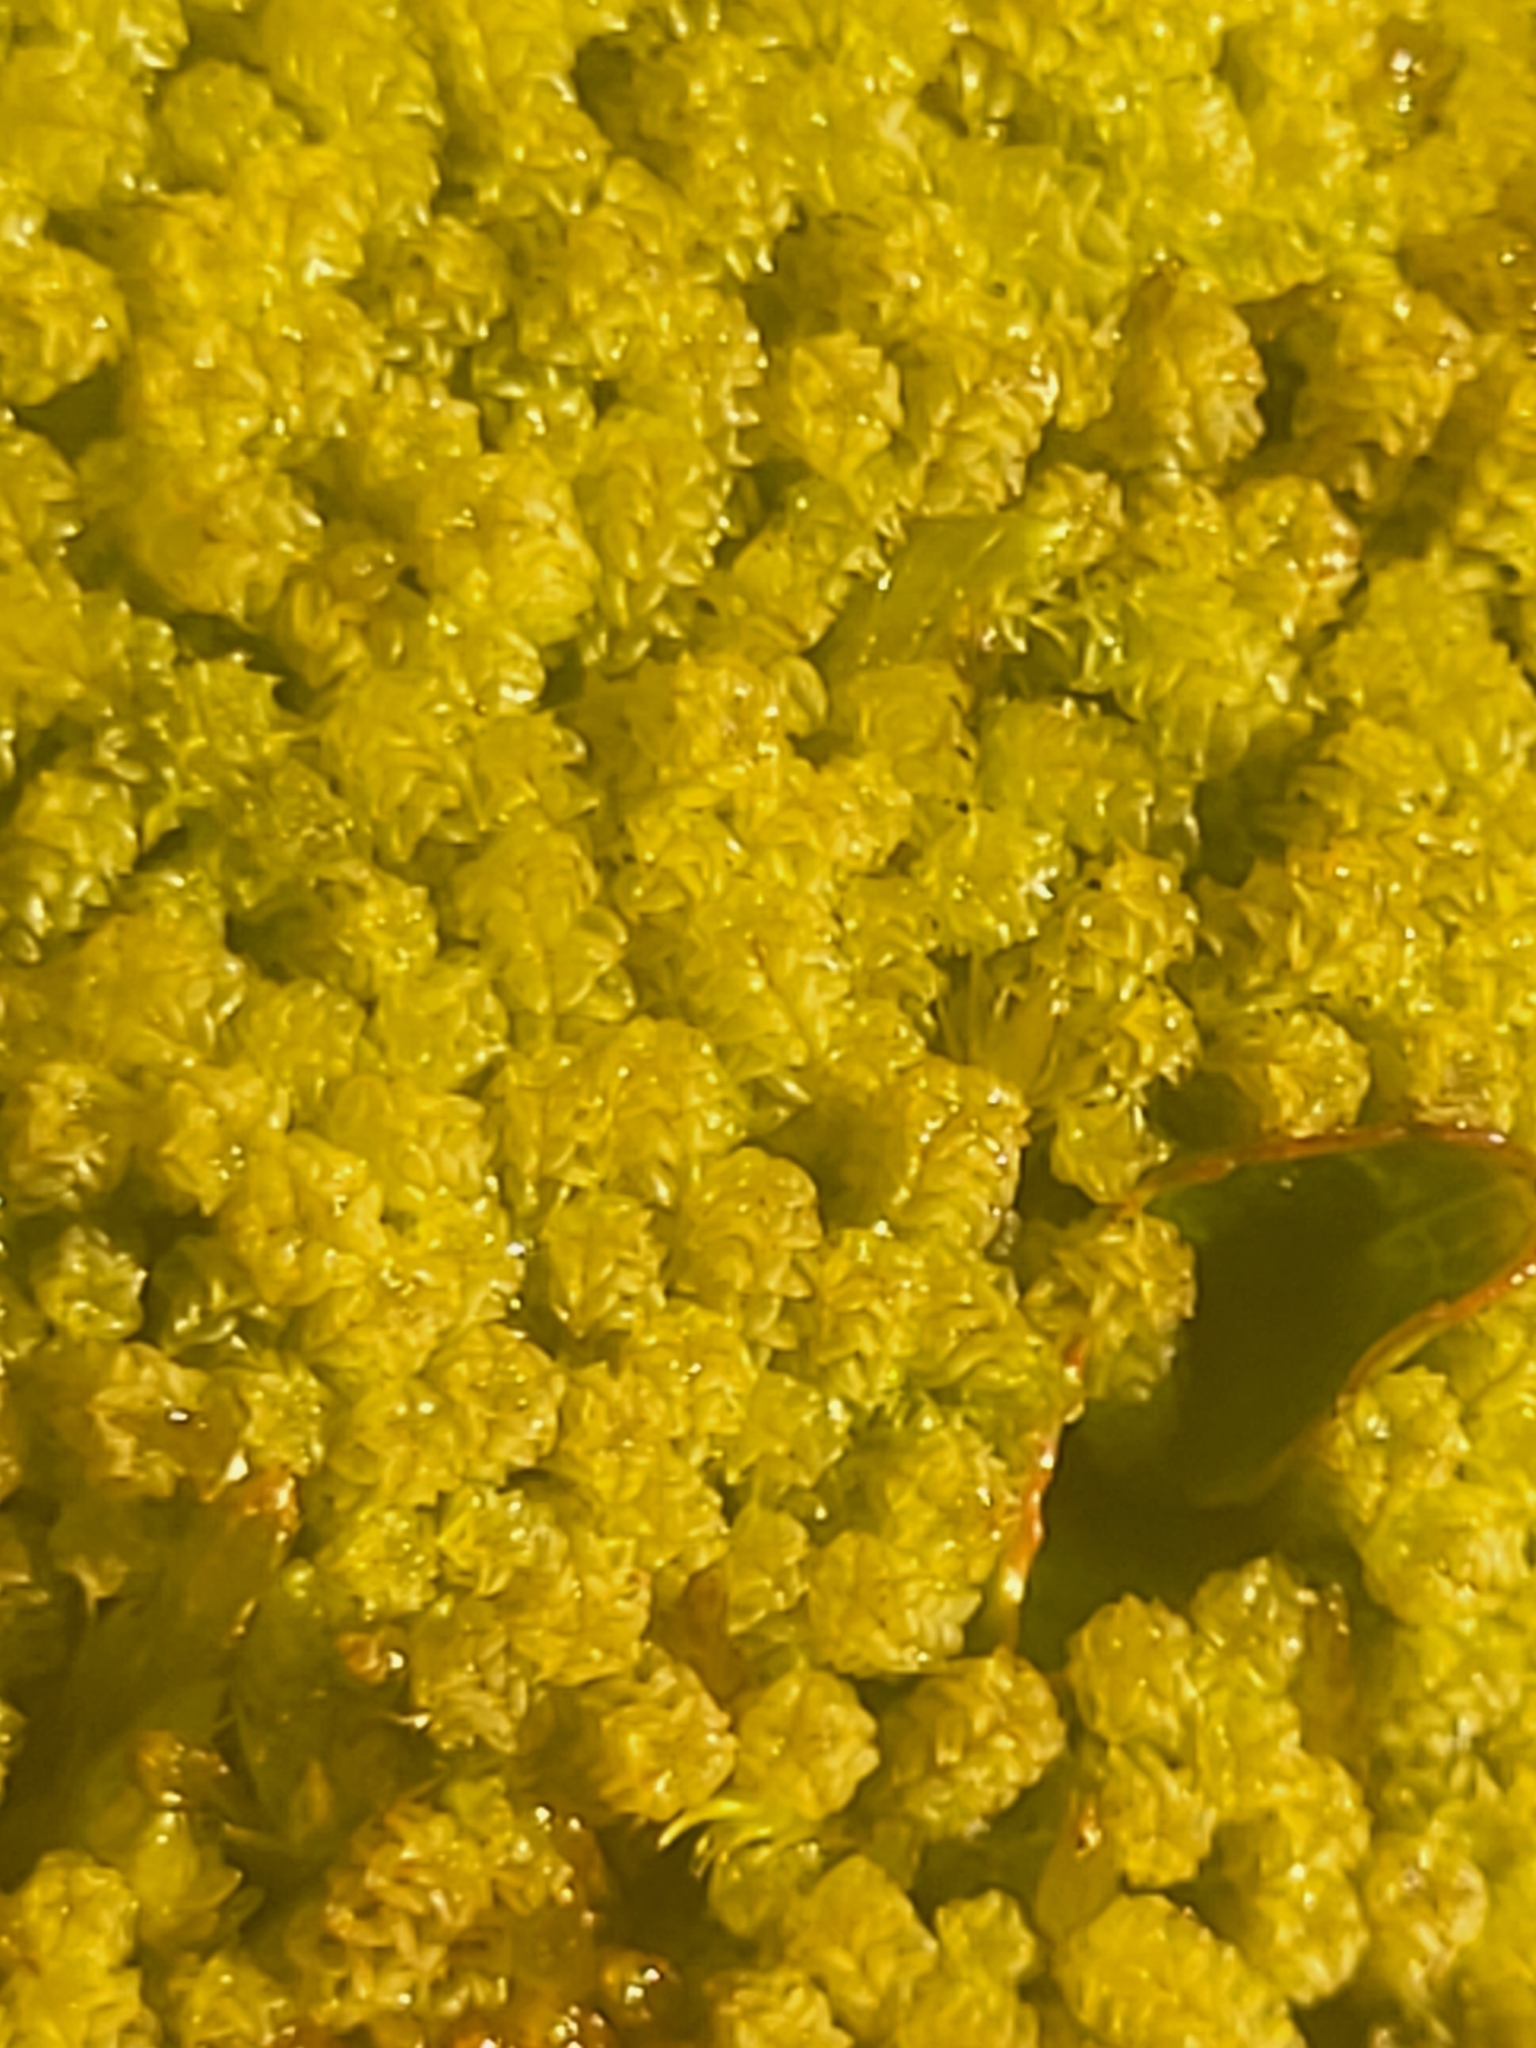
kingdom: Plantae
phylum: Bryophyta
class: Bryopsida
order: Splachnales
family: Meesiaceae
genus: Paludella
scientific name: Paludella squarrosa
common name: Tufted fen moss
